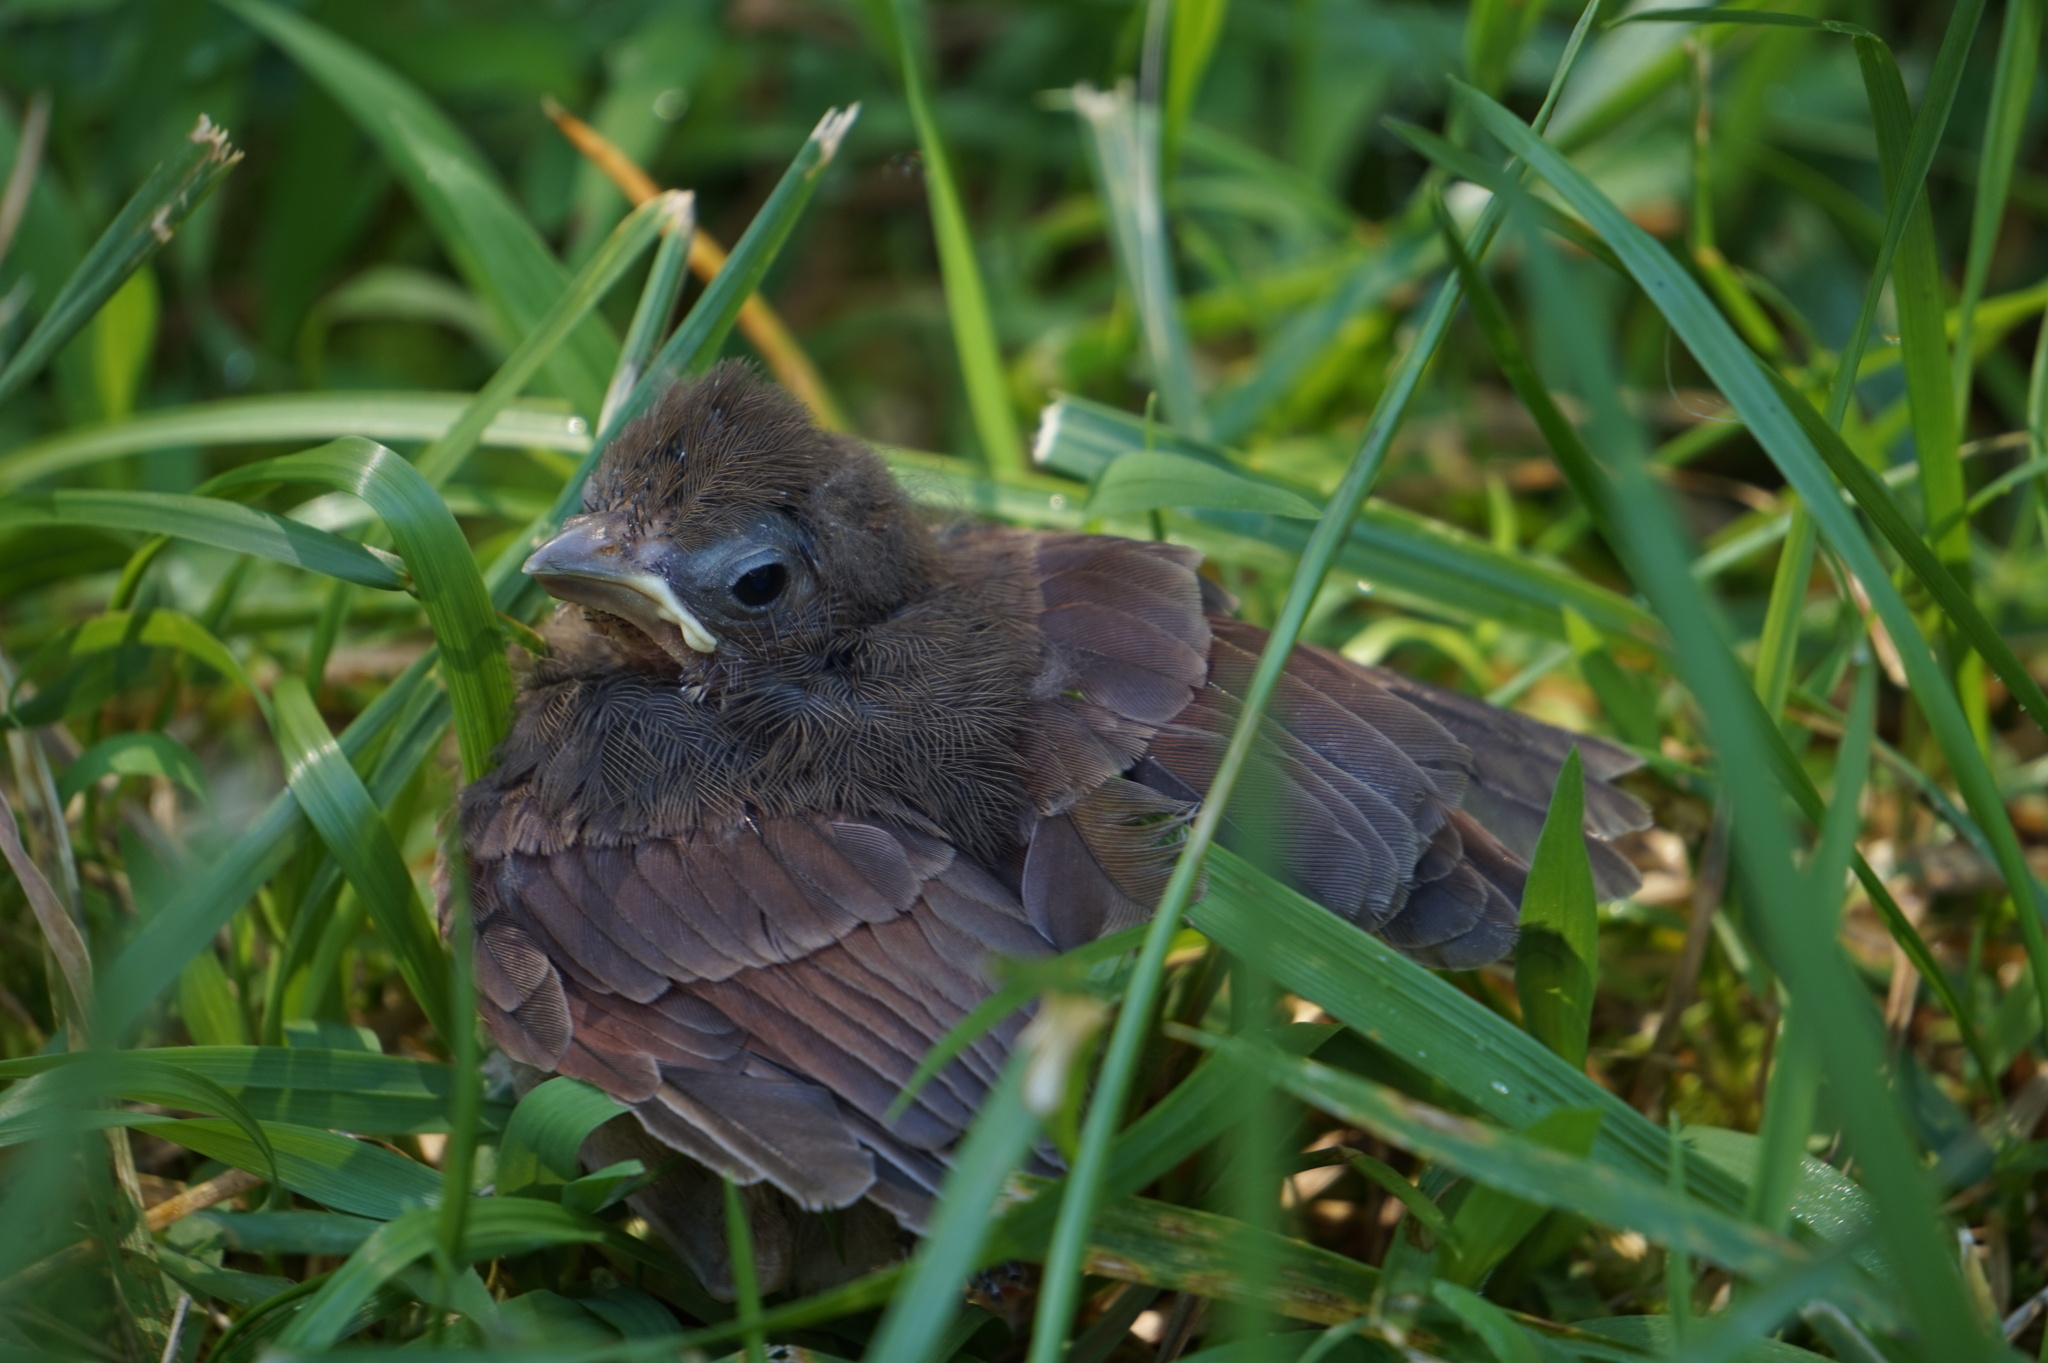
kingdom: Animalia
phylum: Chordata
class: Aves
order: Passeriformes
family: Cardinalidae
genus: Cardinalis
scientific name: Cardinalis cardinalis
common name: Northern cardinal
